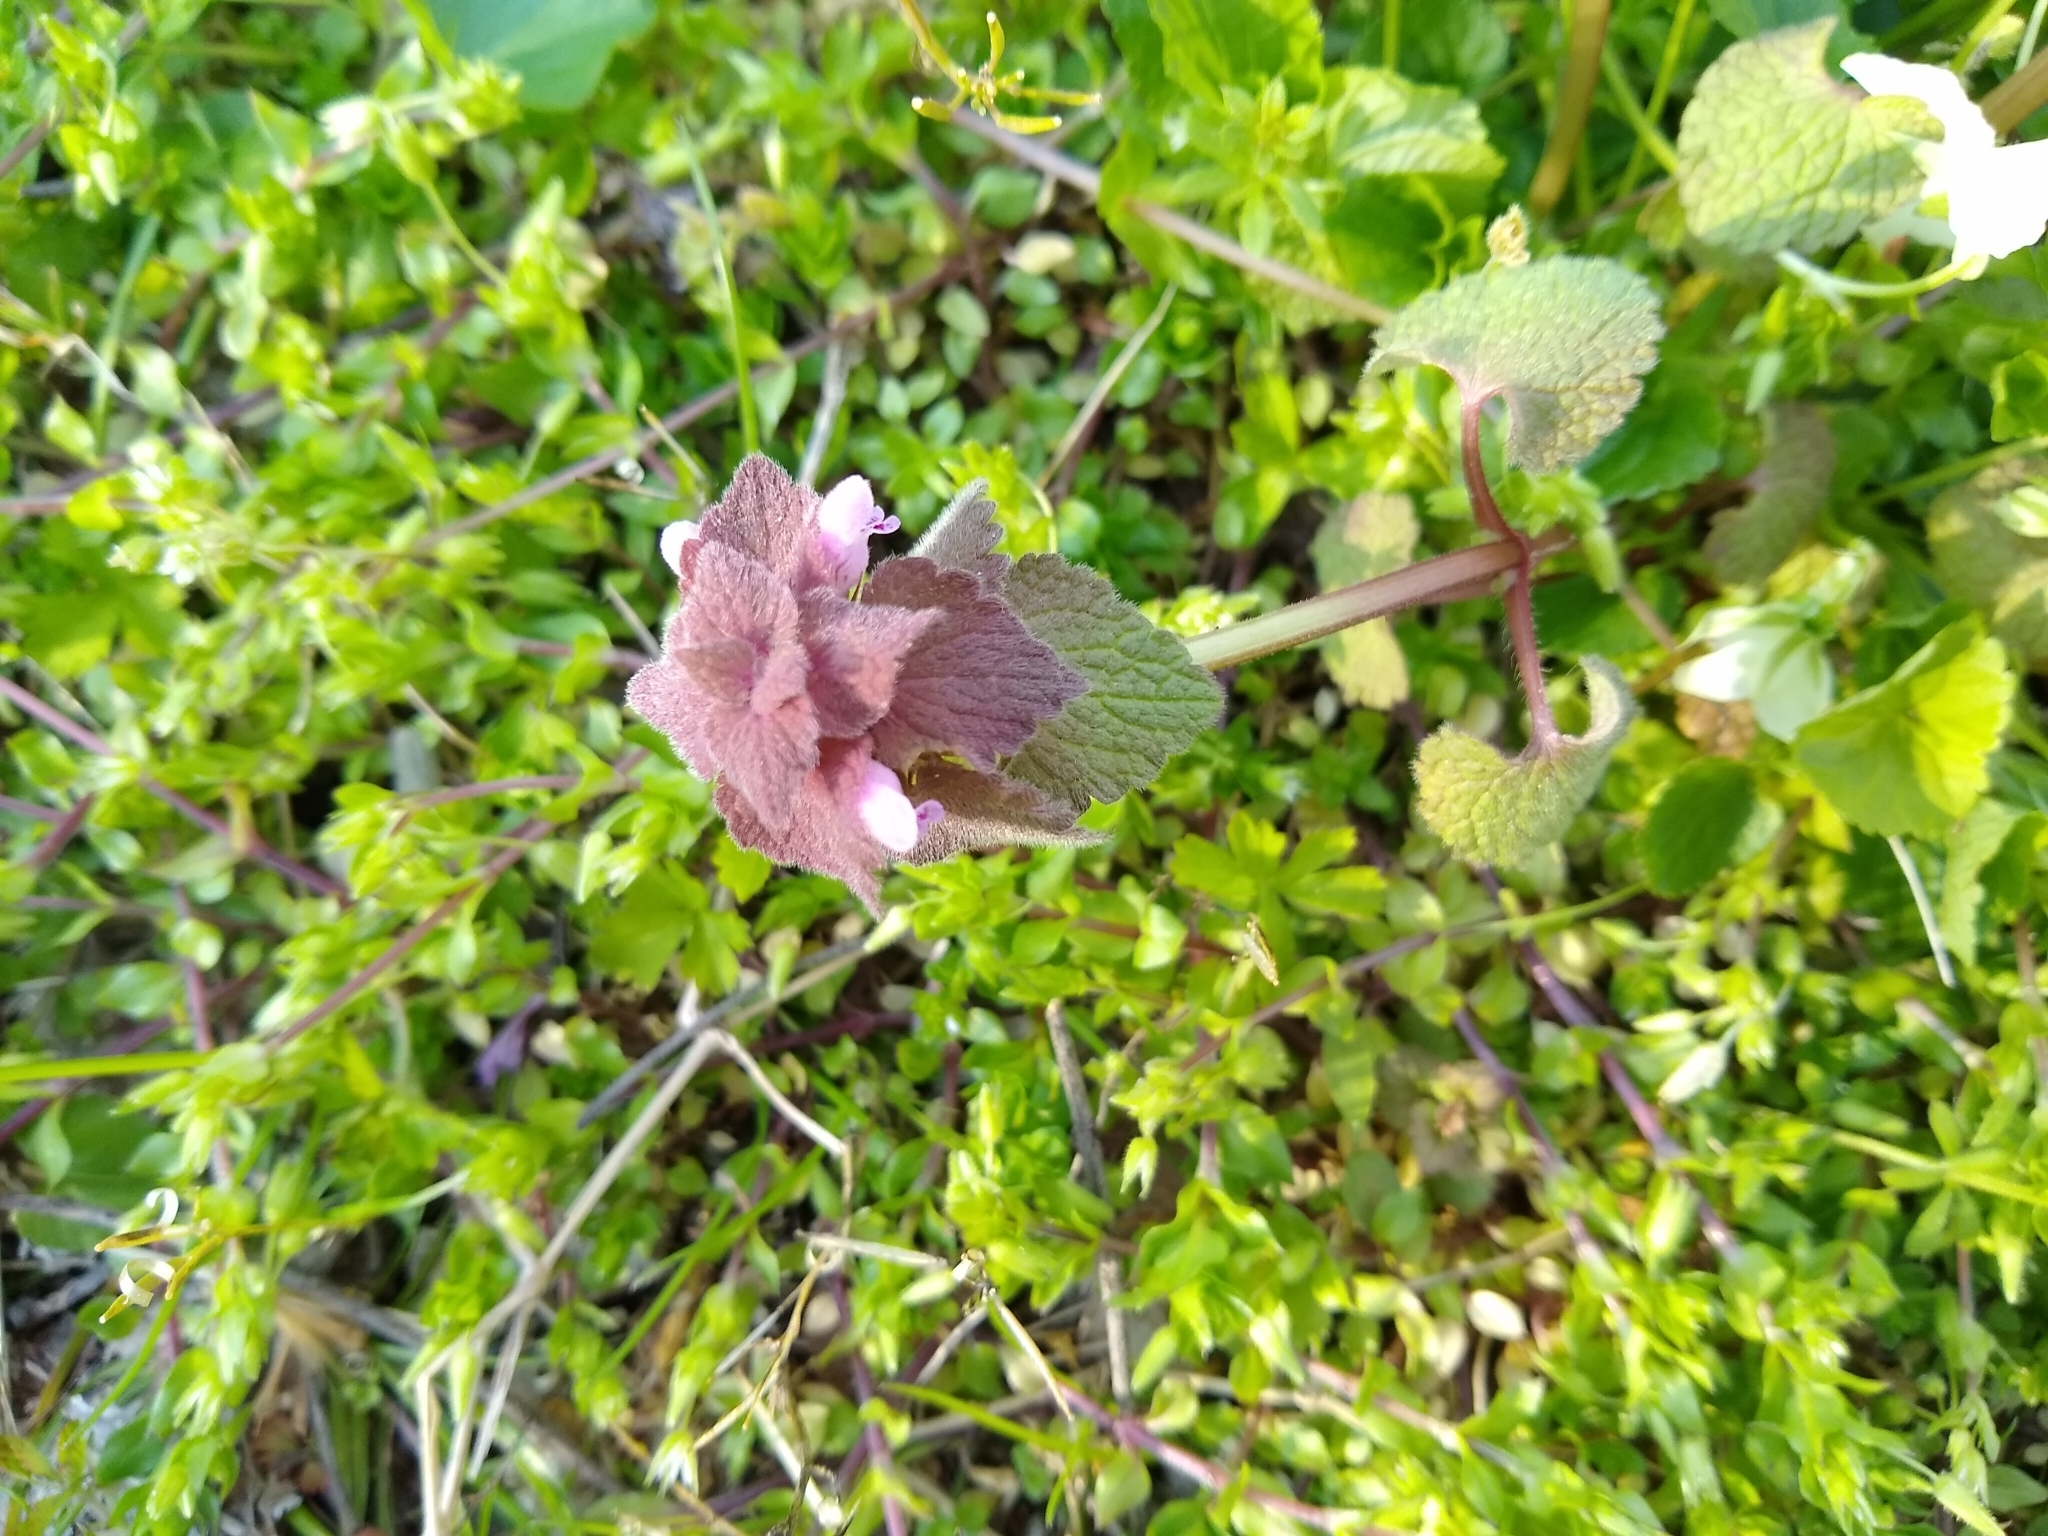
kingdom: Plantae
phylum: Tracheophyta
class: Magnoliopsida
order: Lamiales
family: Lamiaceae
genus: Lamium
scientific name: Lamium purpureum
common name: Red dead-nettle
